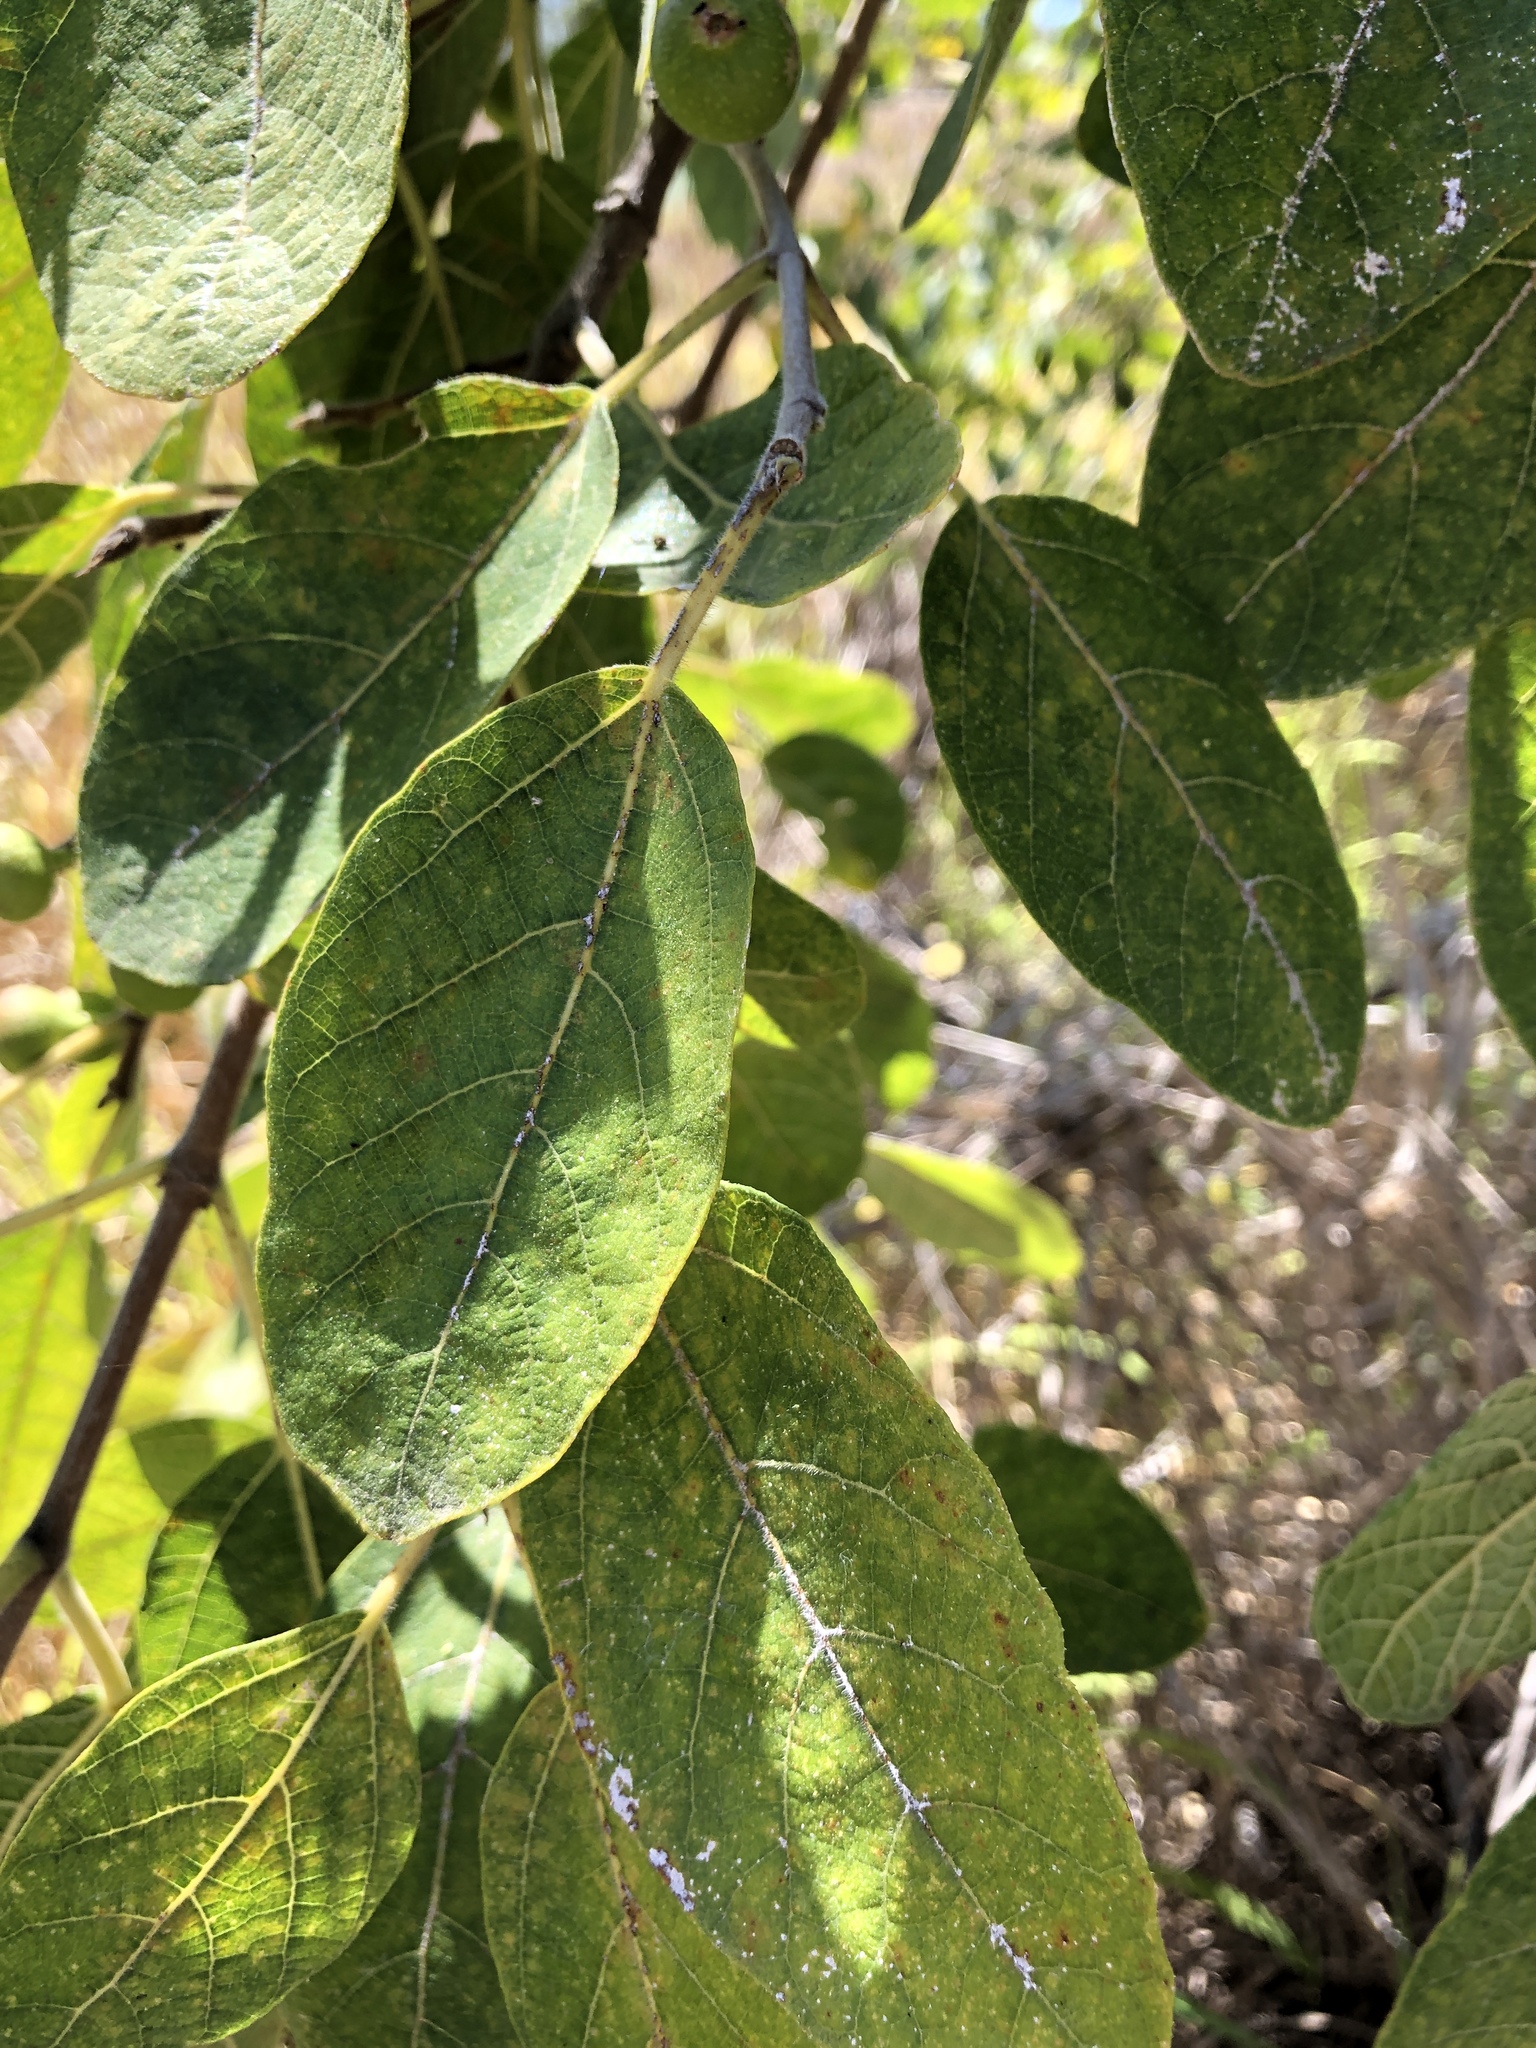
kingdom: Plantae
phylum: Tracheophyta
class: Magnoliopsida
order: Rosales
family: Moraceae
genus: Ficus
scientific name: Ficus opposita
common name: Figwood
